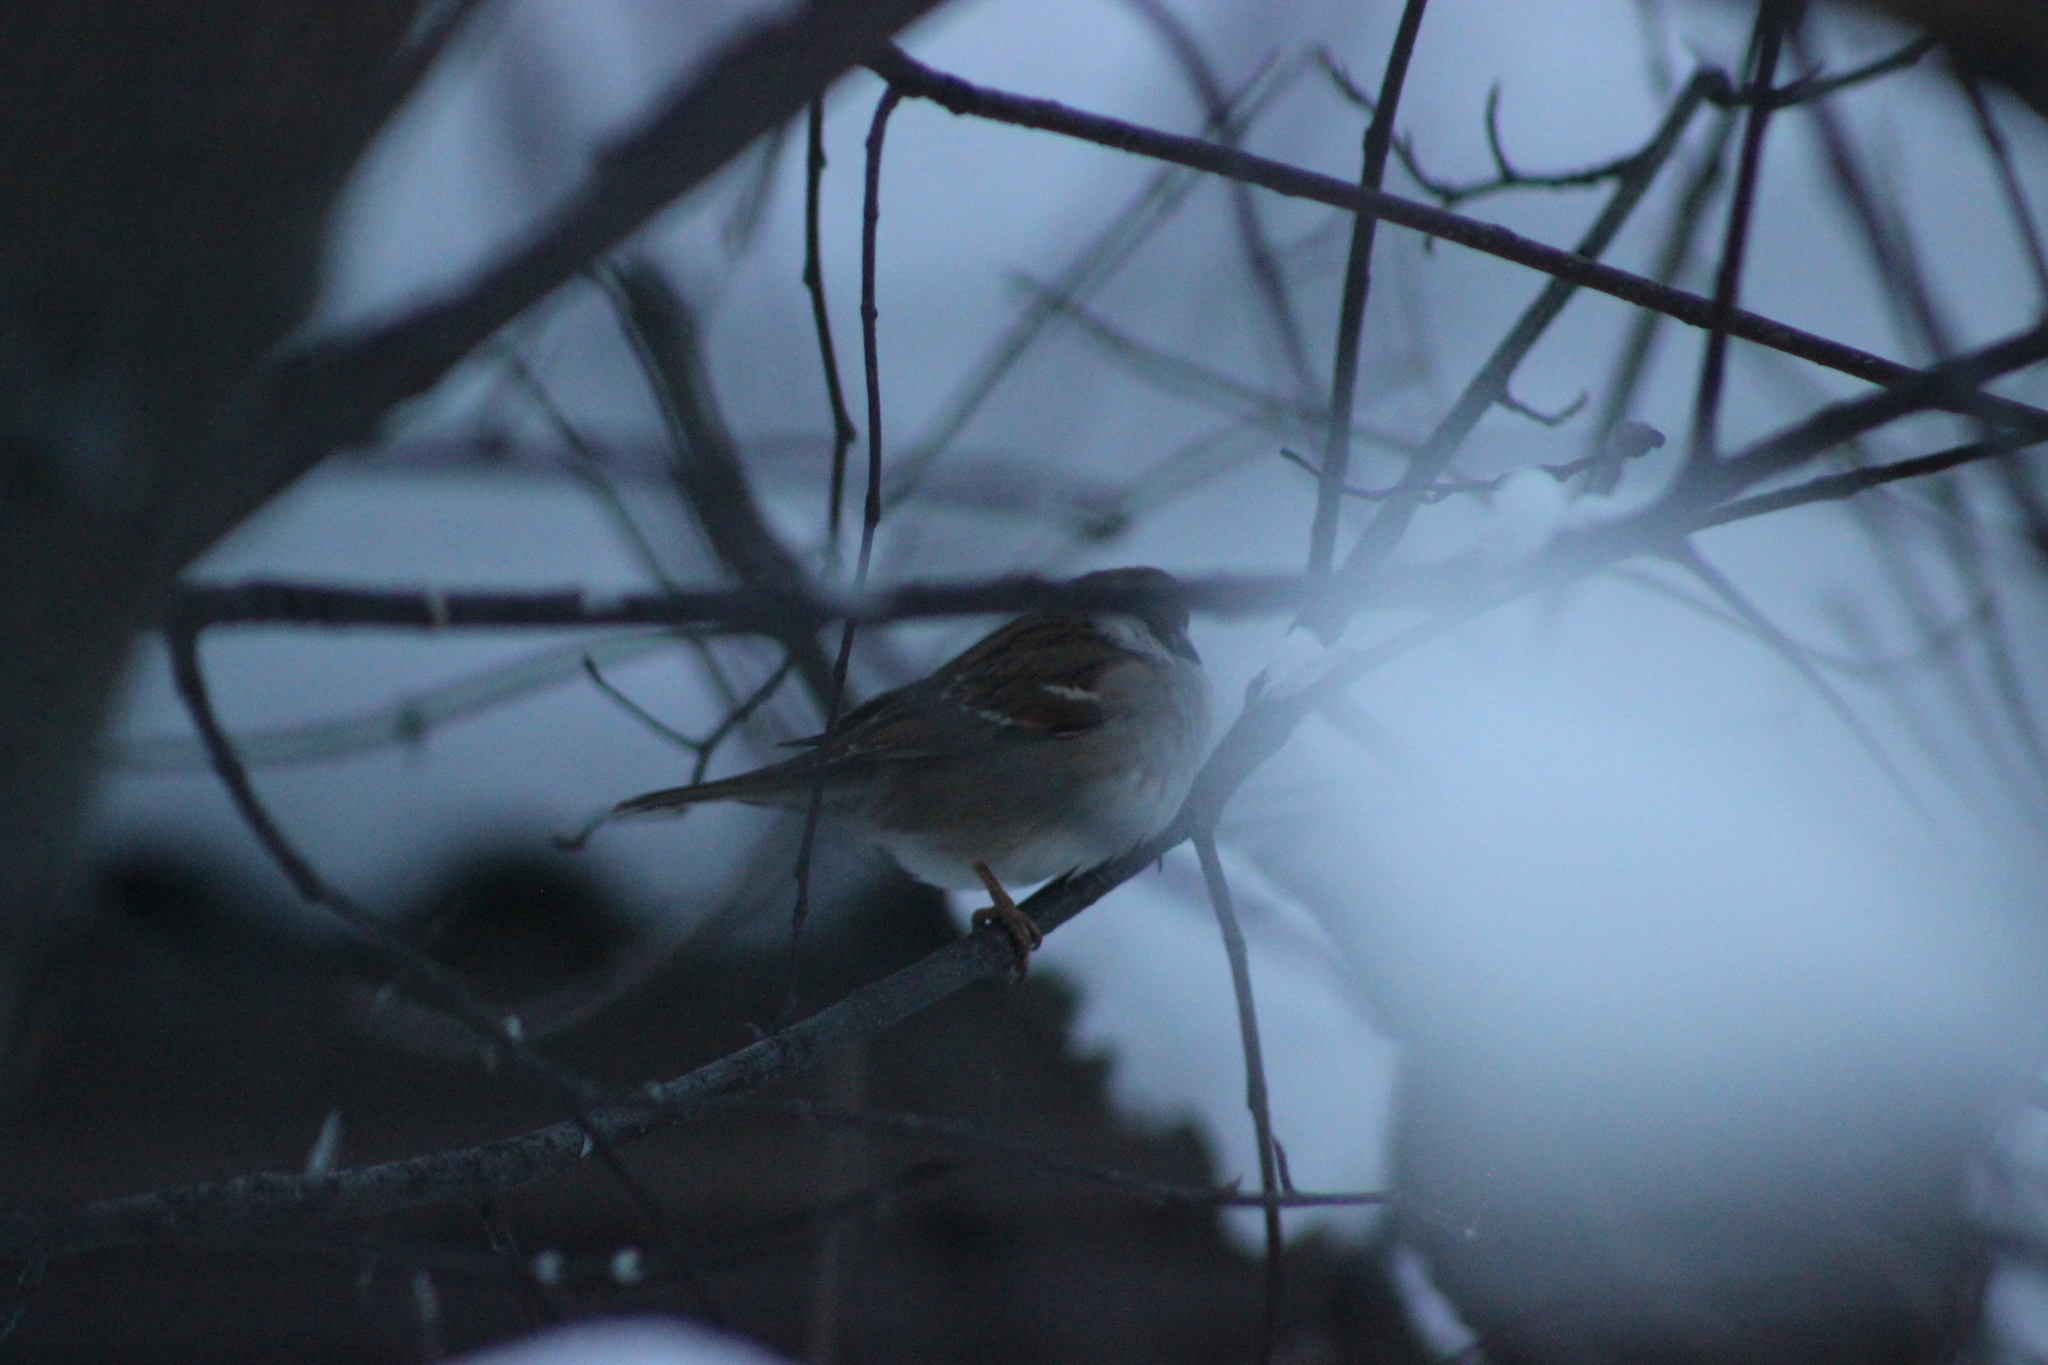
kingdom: Animalia
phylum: Chordata
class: Aves
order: Passeriformes
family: Passeridae
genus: Passer
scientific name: Passer montanus
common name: Eurasian tree sparrow
